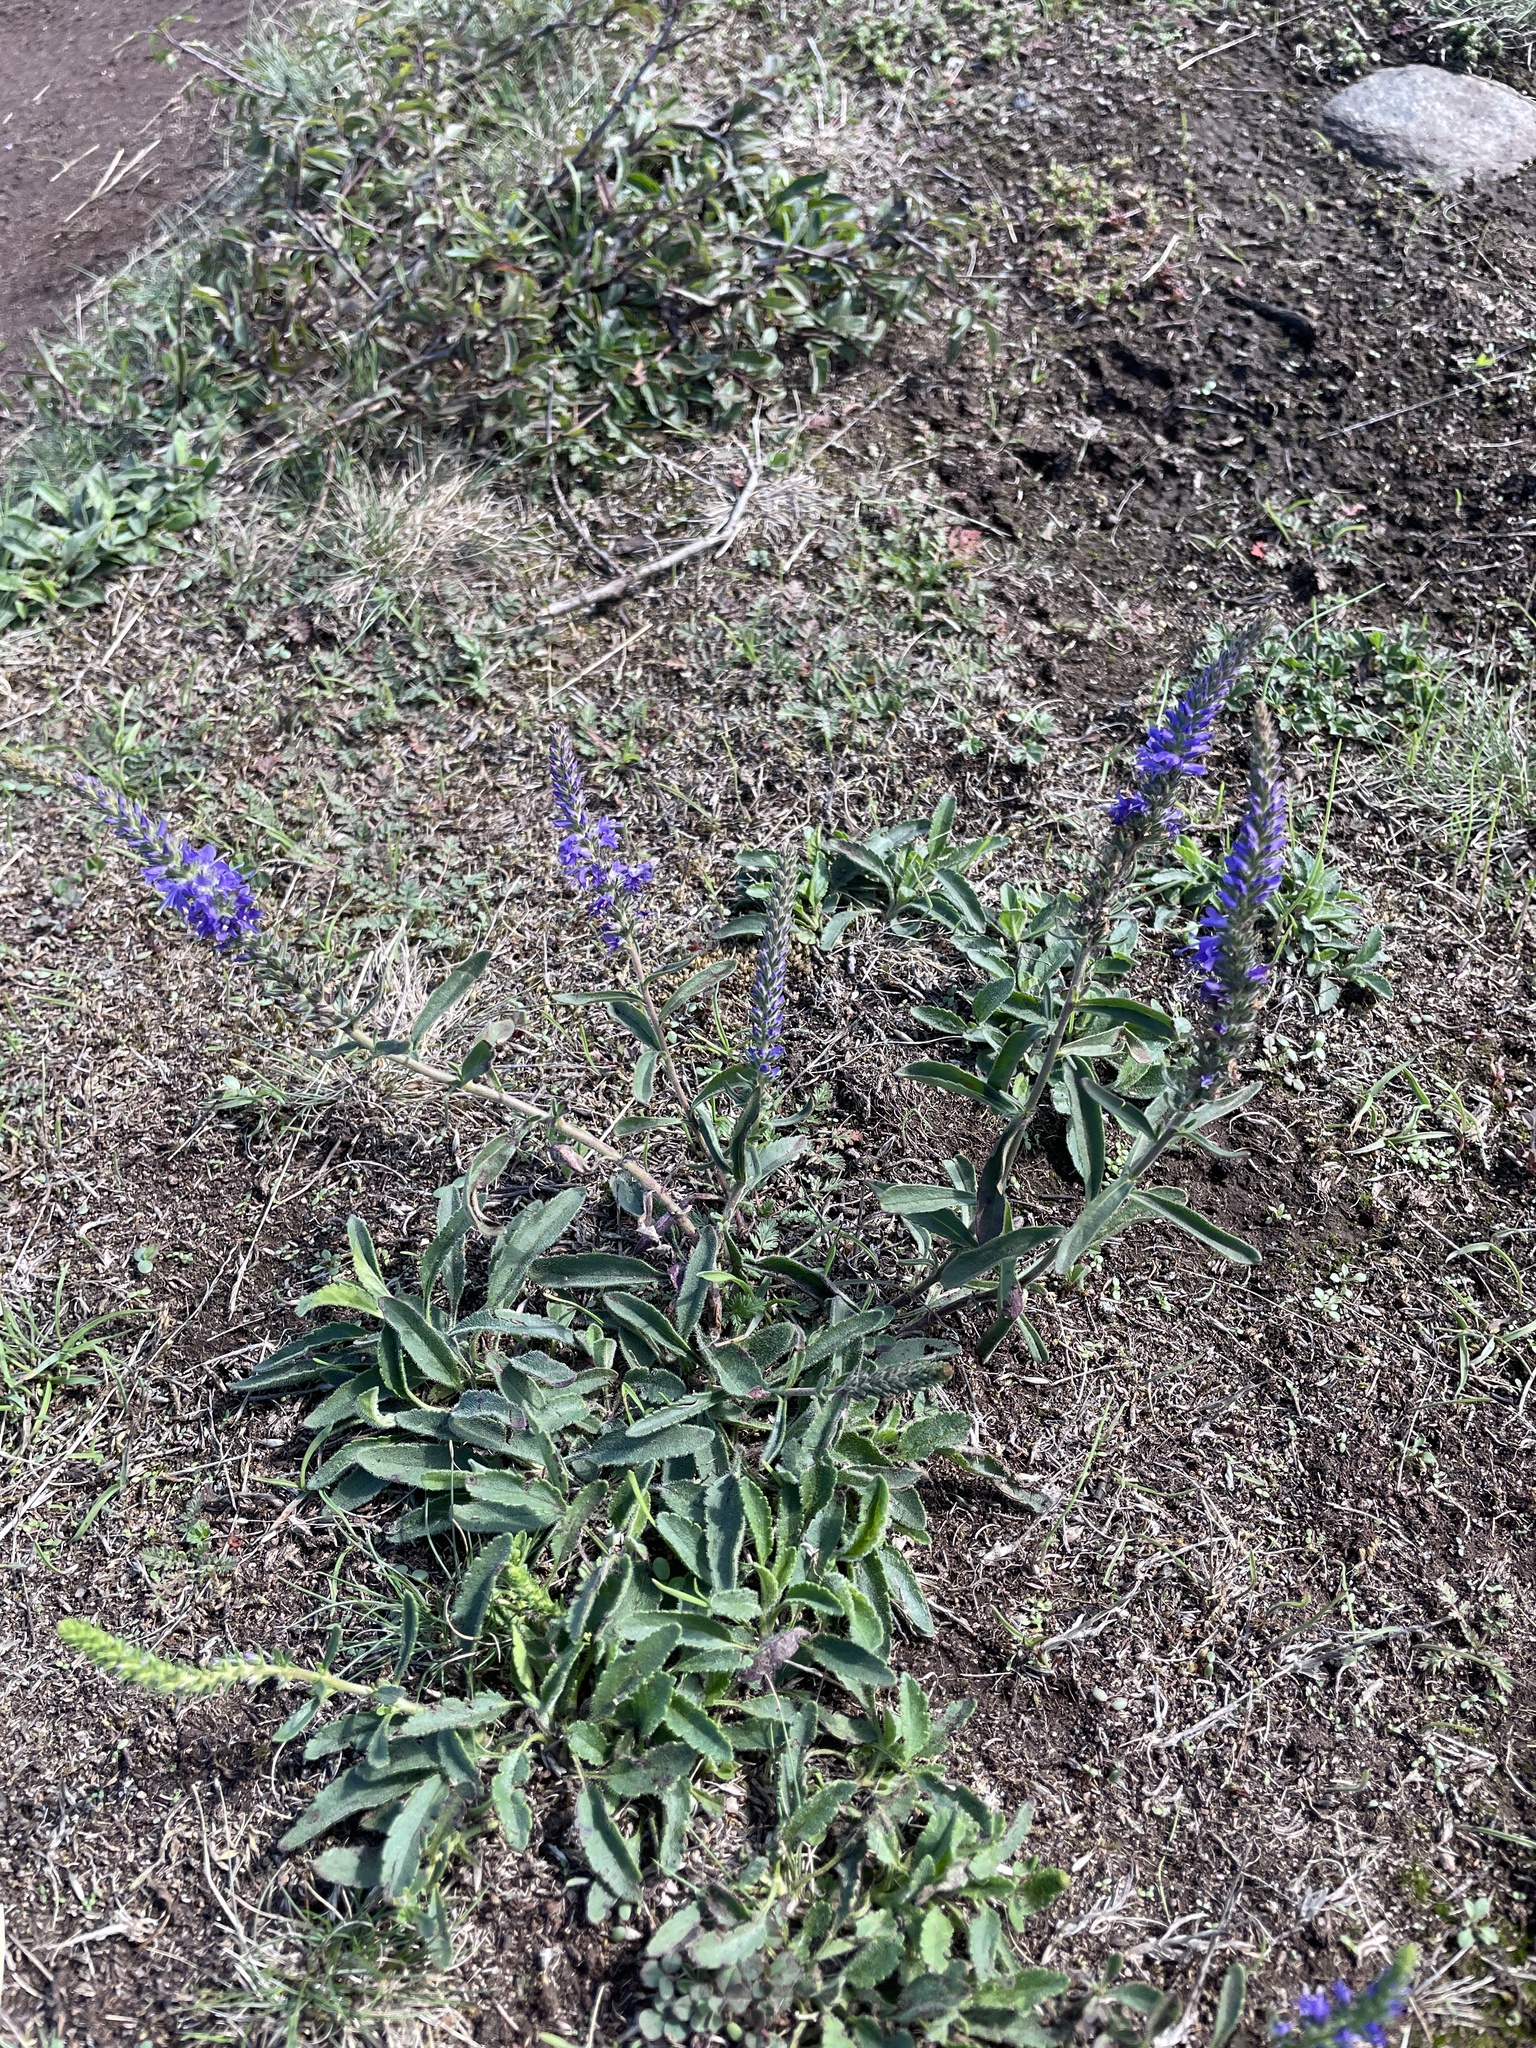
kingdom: Plantae
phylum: Tracheophyta
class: Magnoliopsida
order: Lamiales
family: Plantaginaceae
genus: Veronica
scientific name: Veronica spicata
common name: Spiked speedwell
